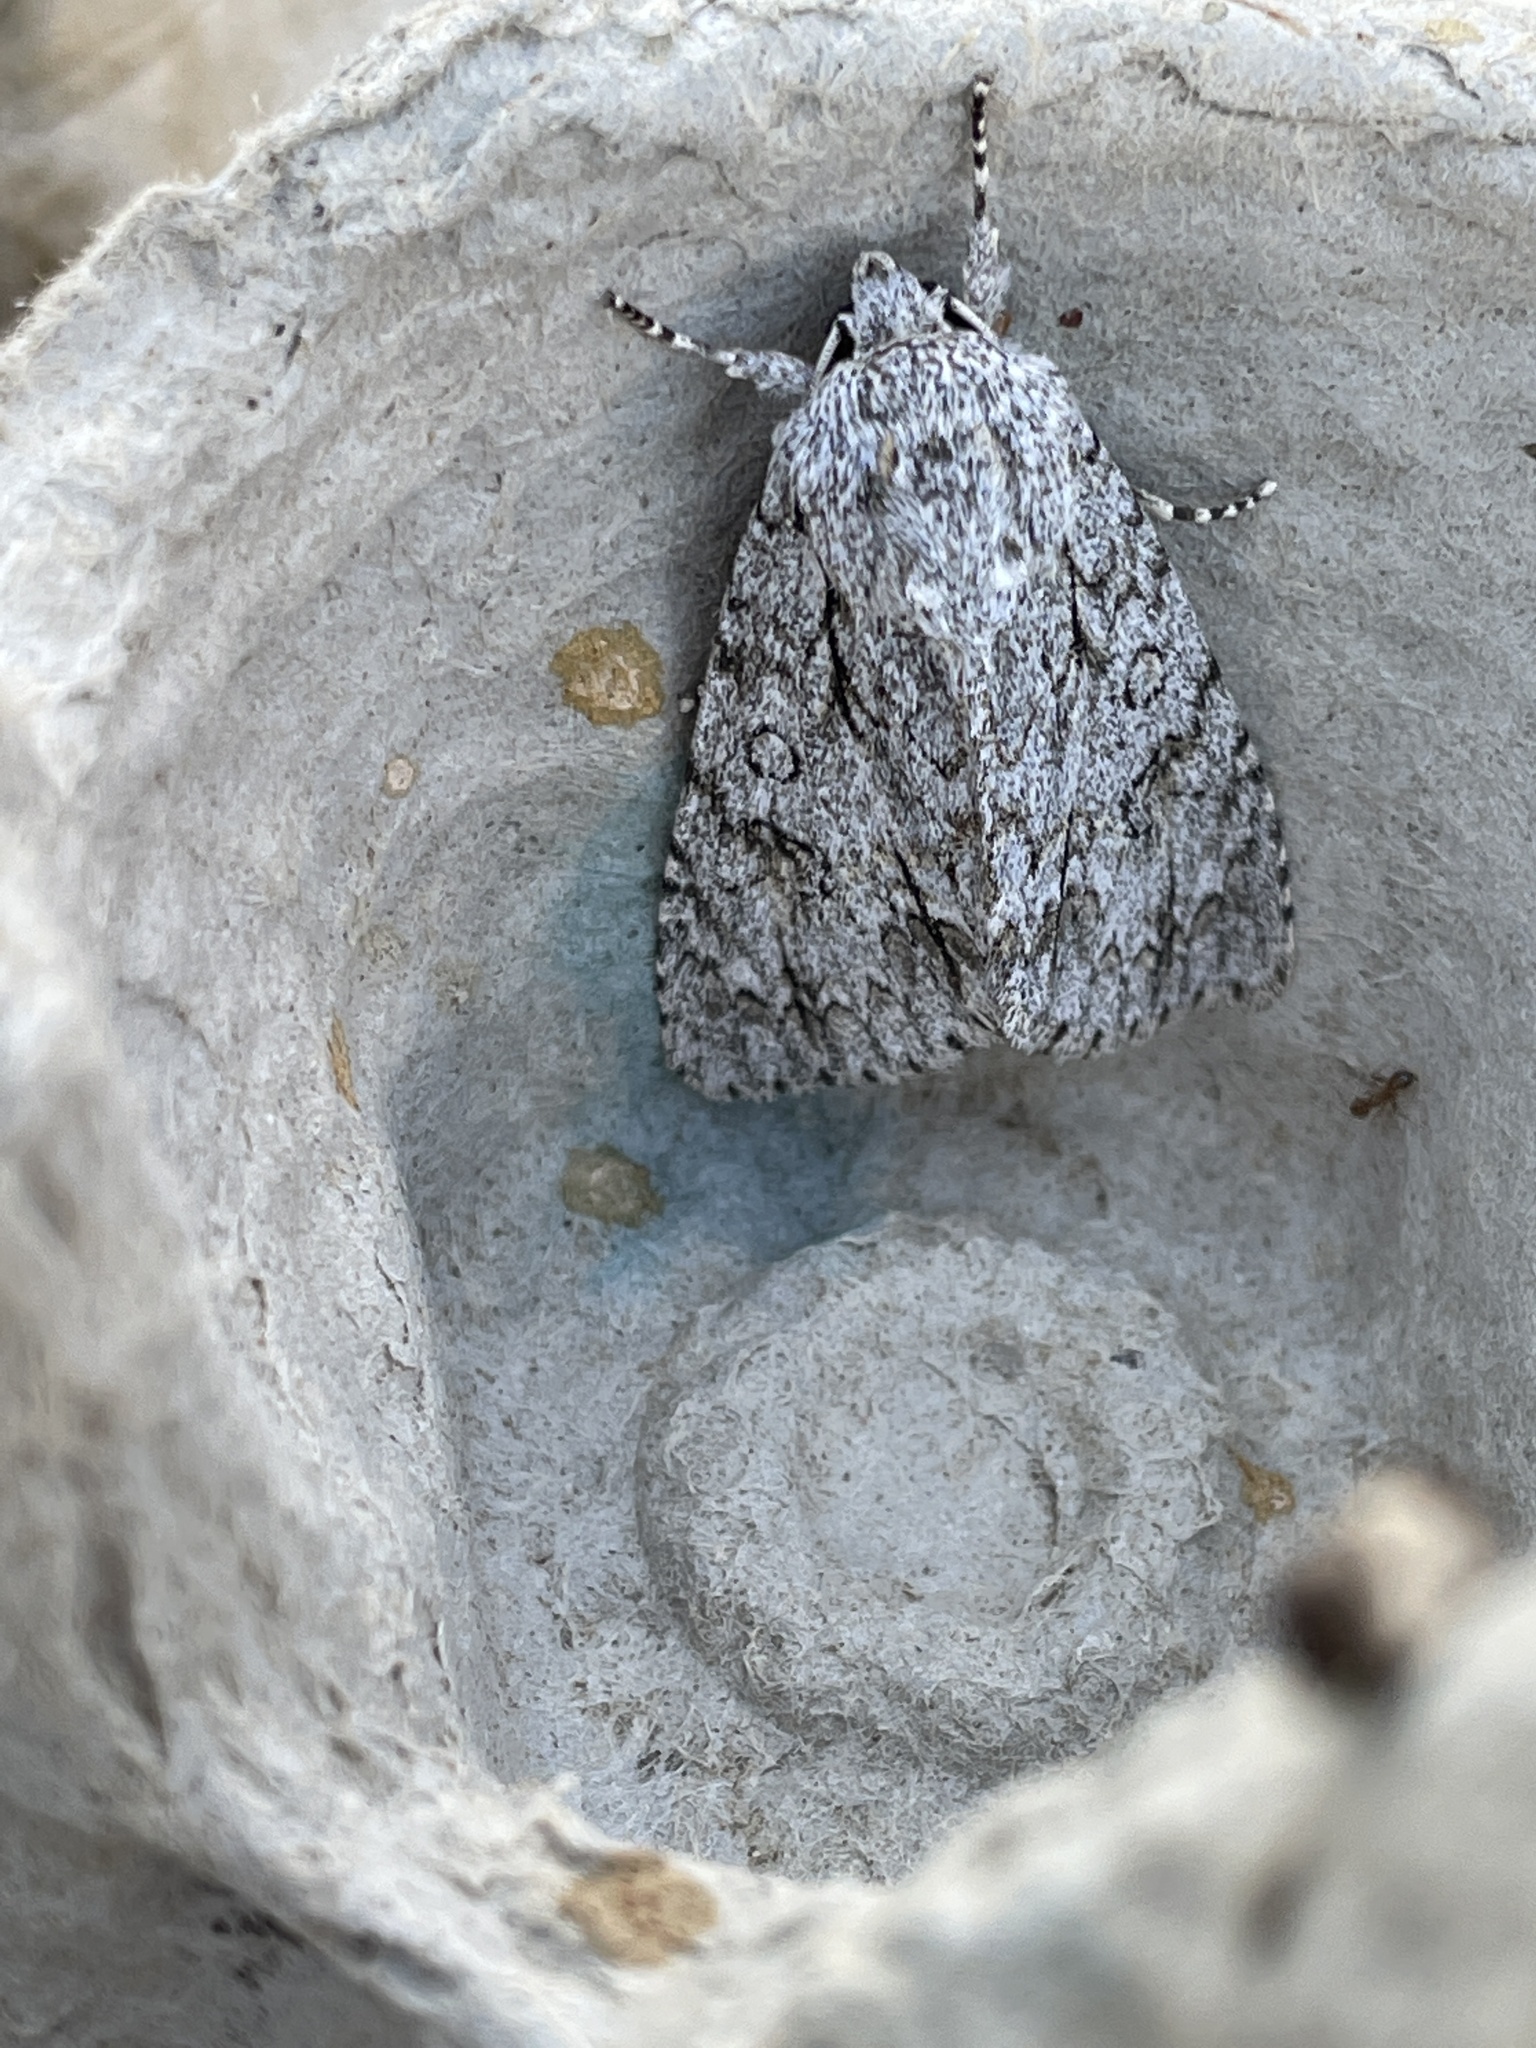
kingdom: Animalia
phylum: Arthropoda
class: Insecta
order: Lepidoptera
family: Noctuidae
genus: Acronicta
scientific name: Acronicta aceris
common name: Sycamore
